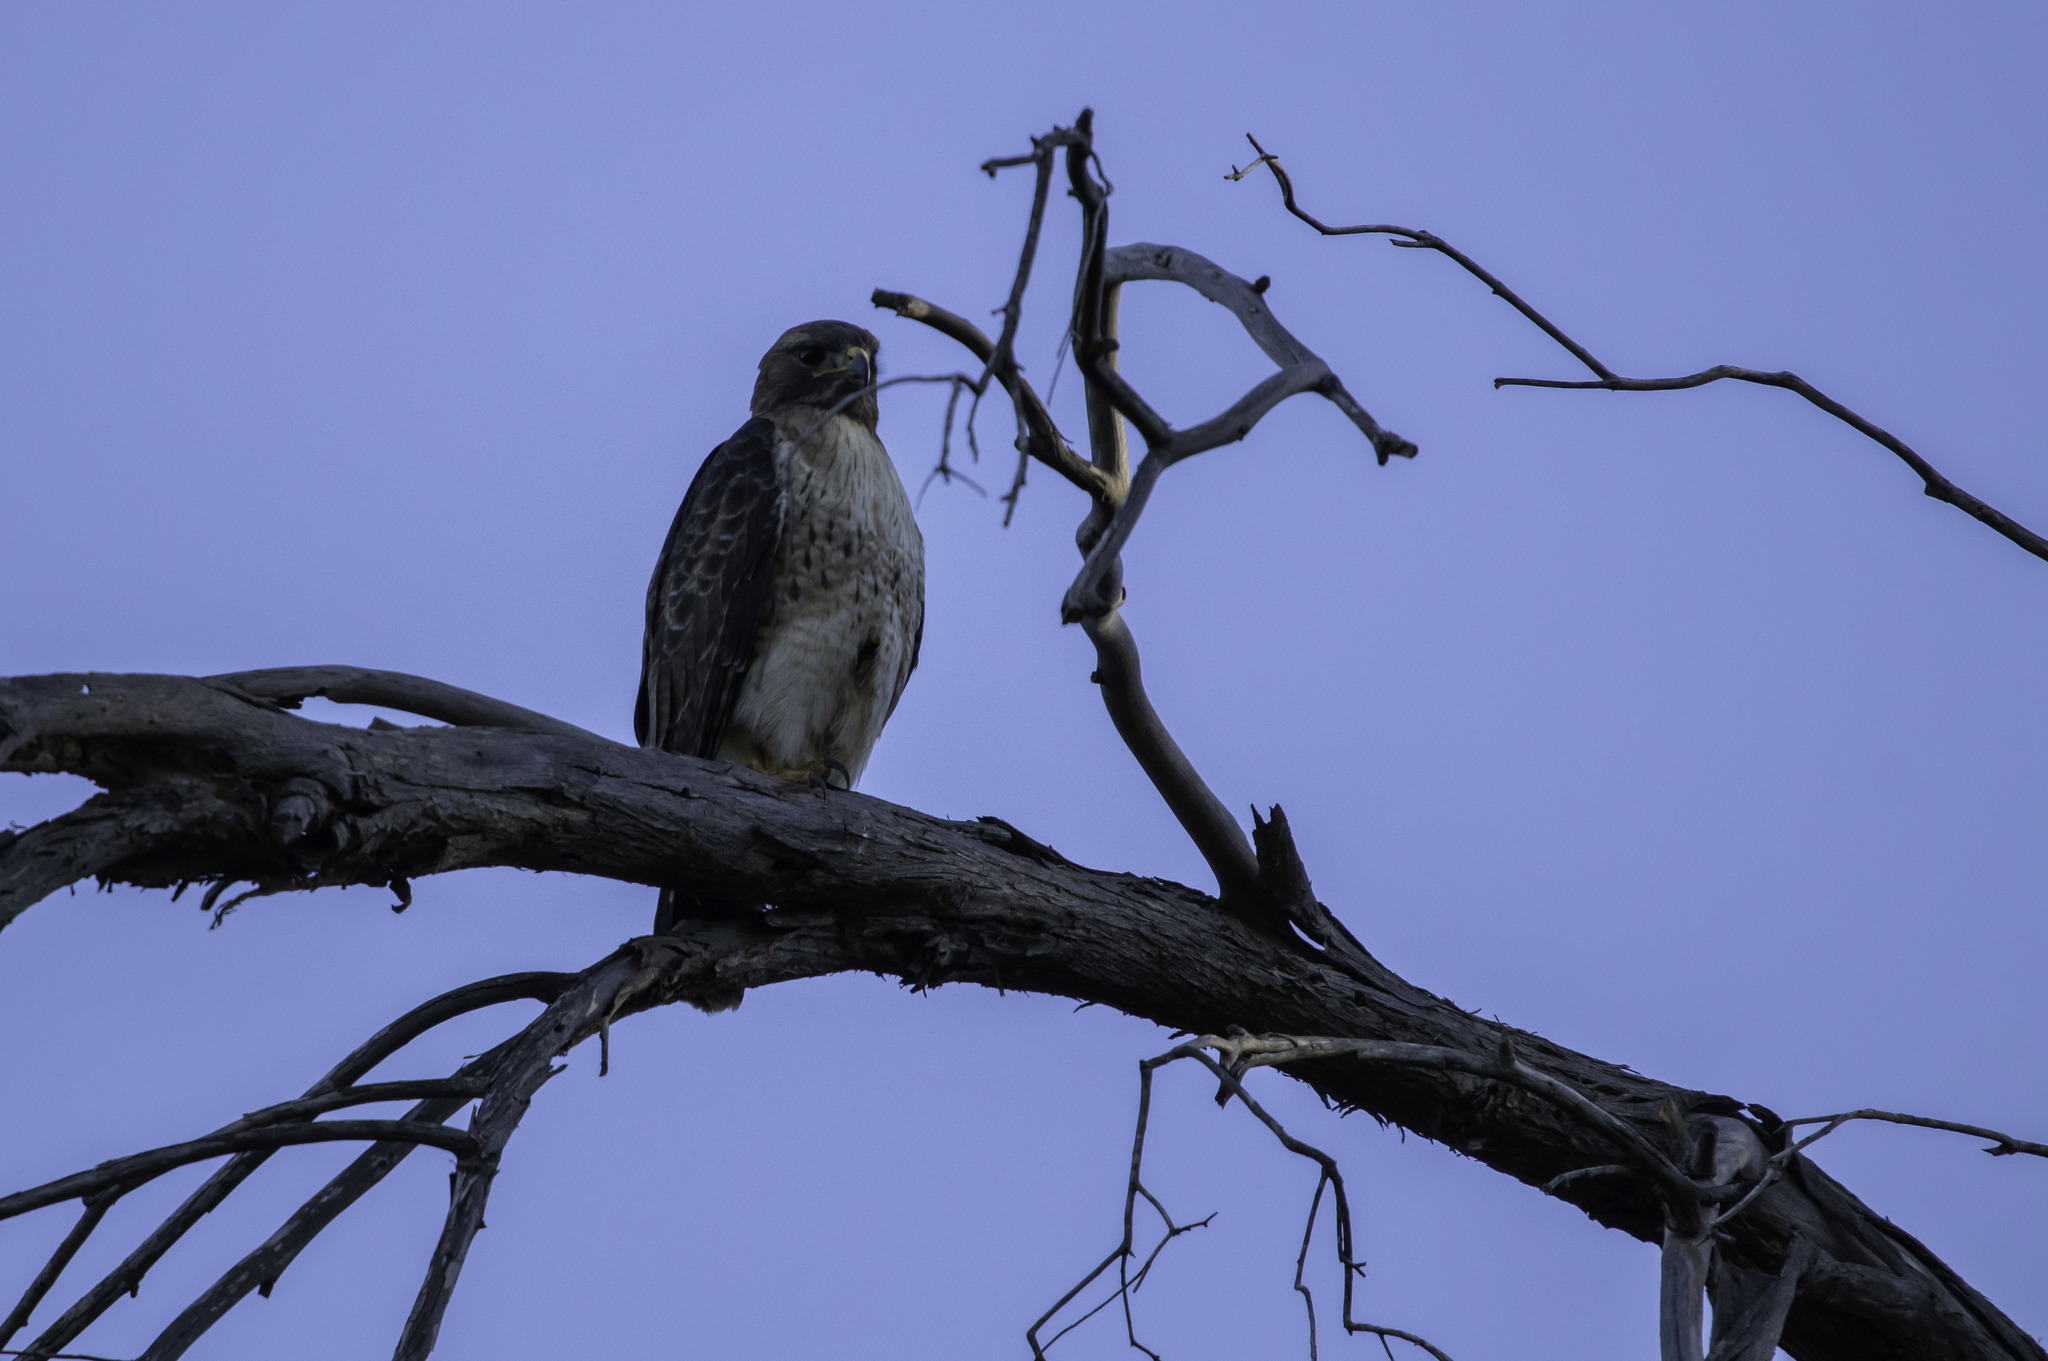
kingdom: Animalia
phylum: Chordata
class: Aves
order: Accipitriformes
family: Accipitridae
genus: Buteo
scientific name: Buteo jamaicensis
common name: Red-tailed hawk
